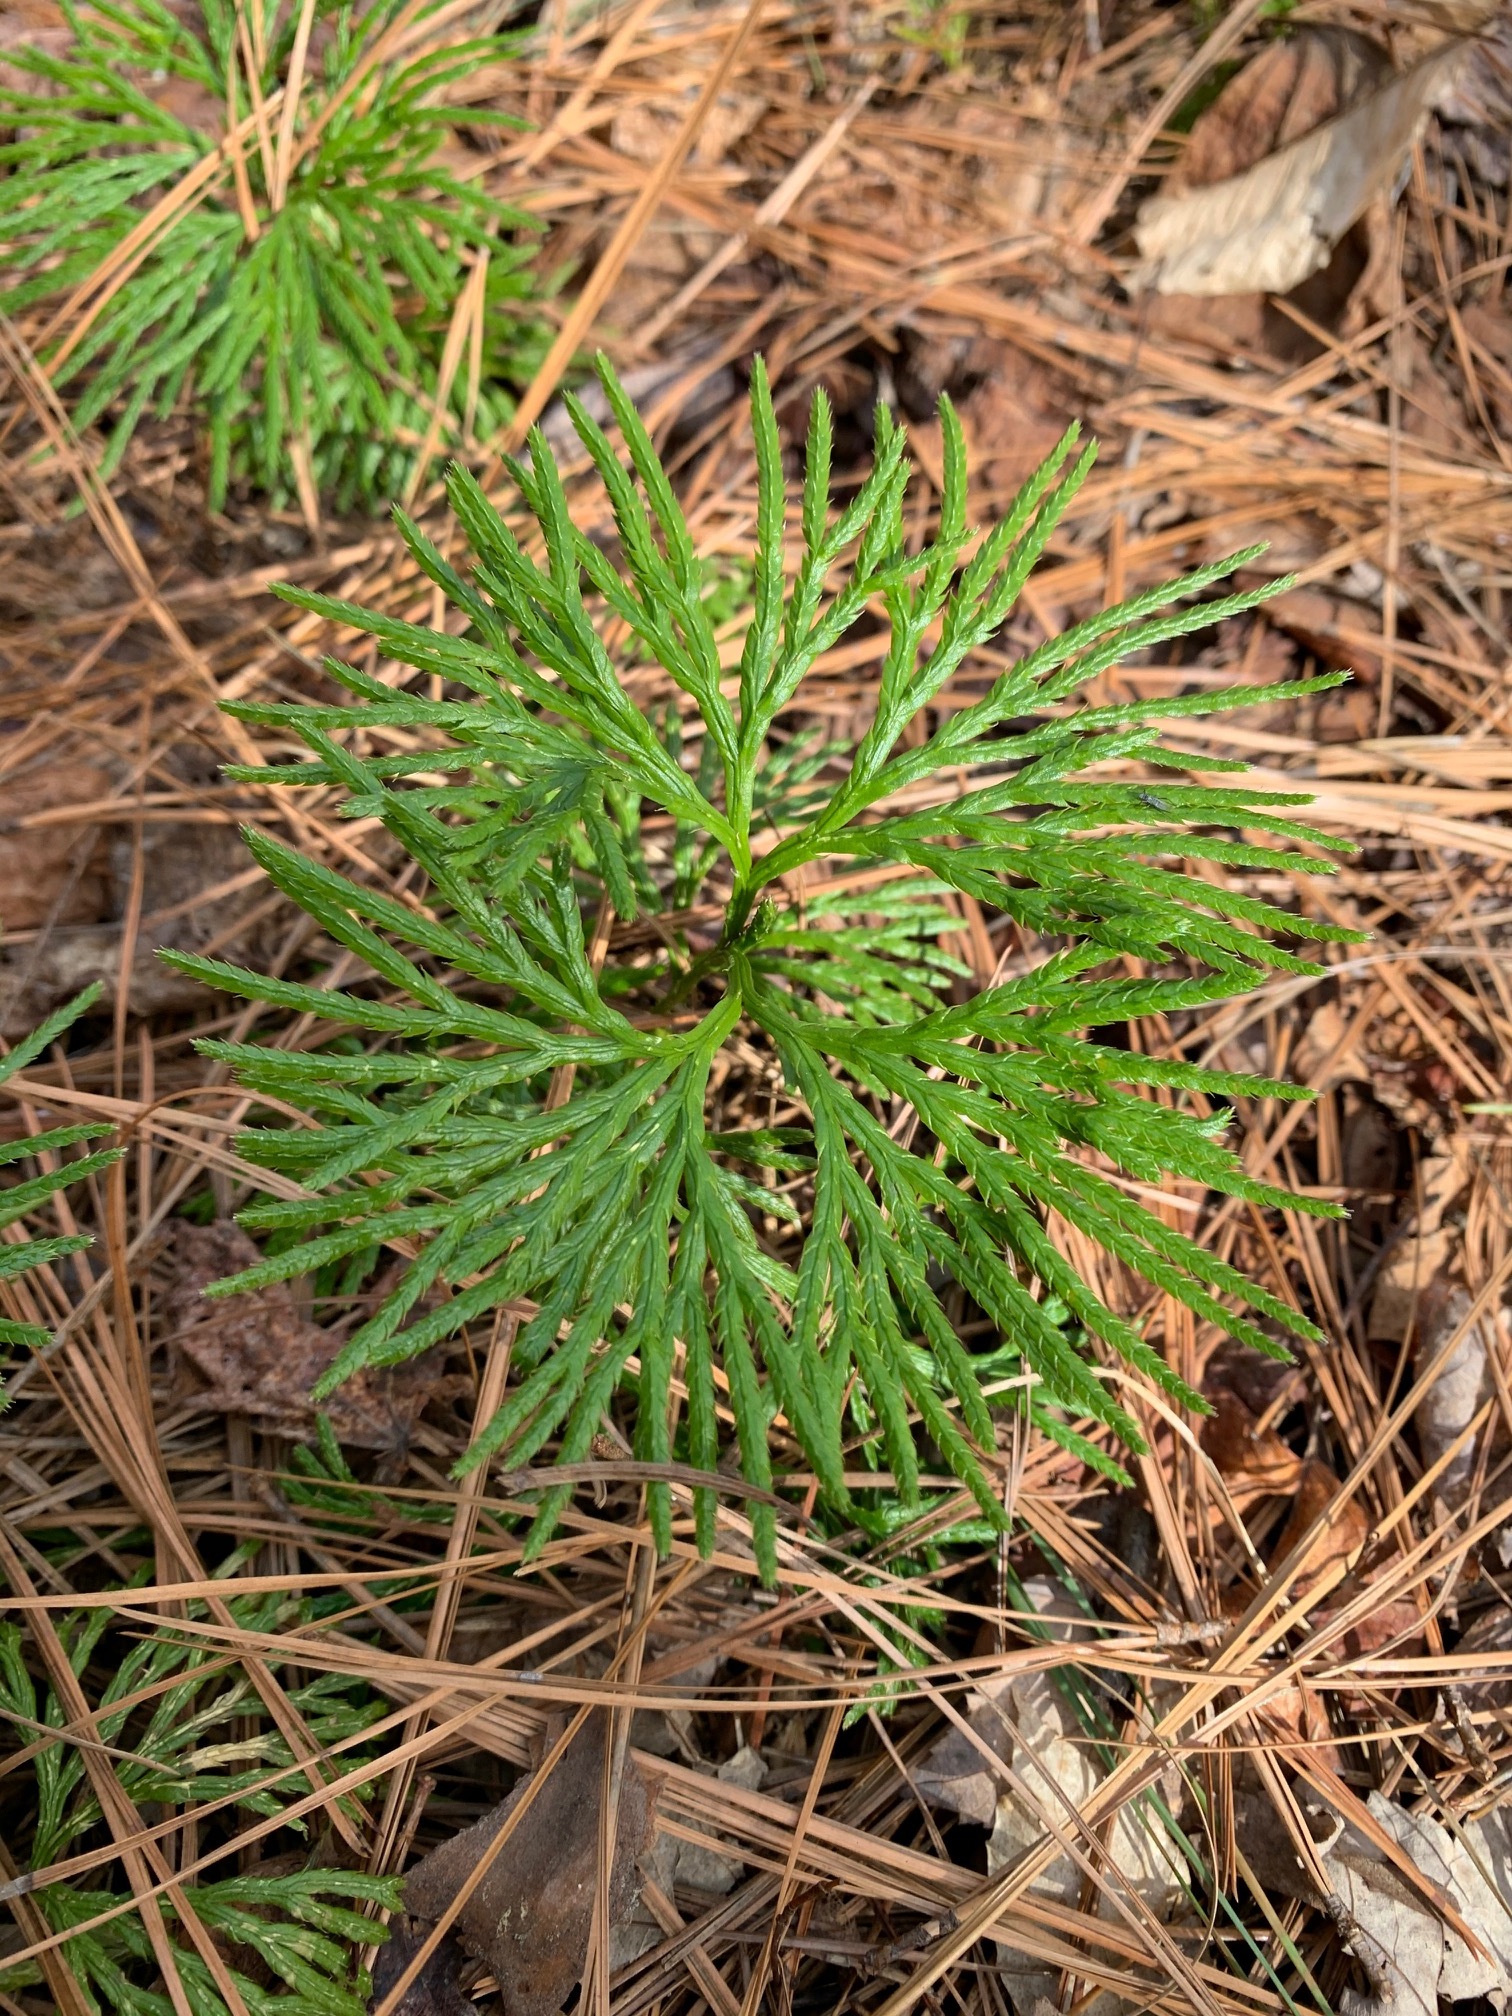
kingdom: Plantae
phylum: Tracheophyta
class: Lycopodiopsida
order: Lycopodiales
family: Lycopodiaceae
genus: Diphasiastrum
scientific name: Diphasiastrum digitatum
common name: Southern running-pine
